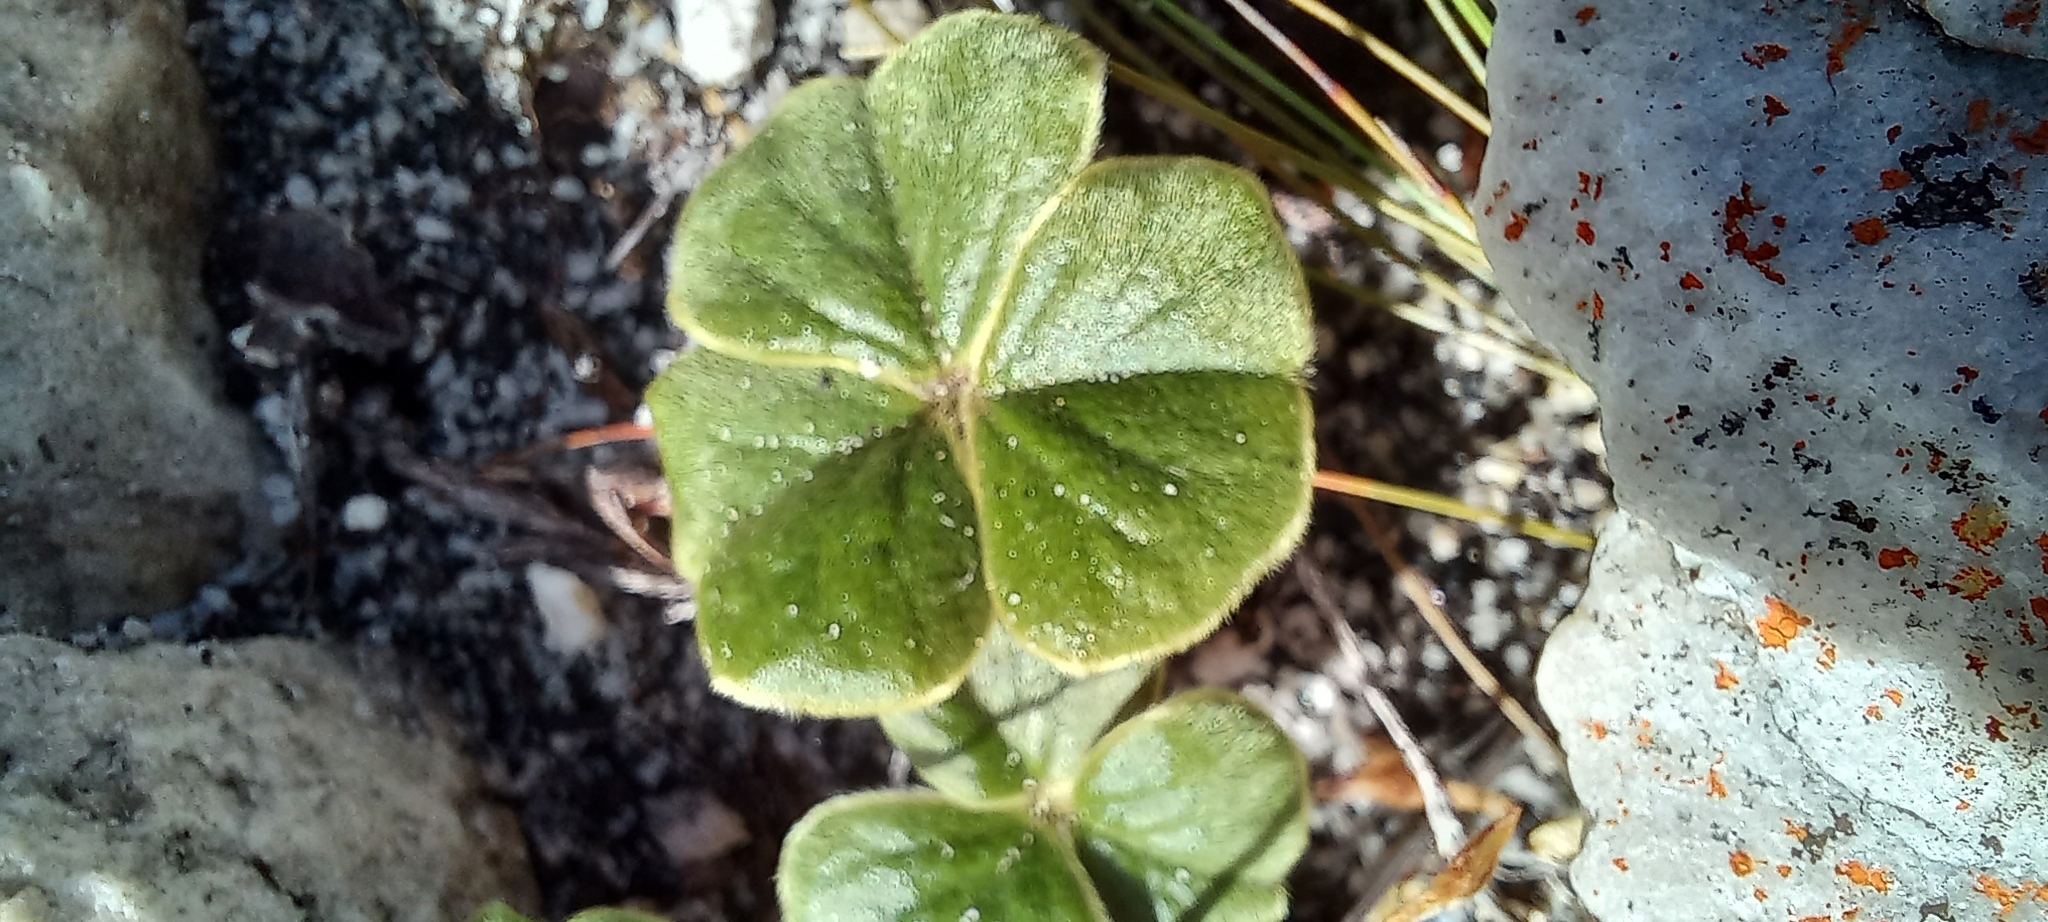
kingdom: Plantae
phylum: Tracheophyta
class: Magnoliopsida
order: Oxalidales
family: Oxalidaceae
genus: Oxalis
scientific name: Oxalis truncatula
